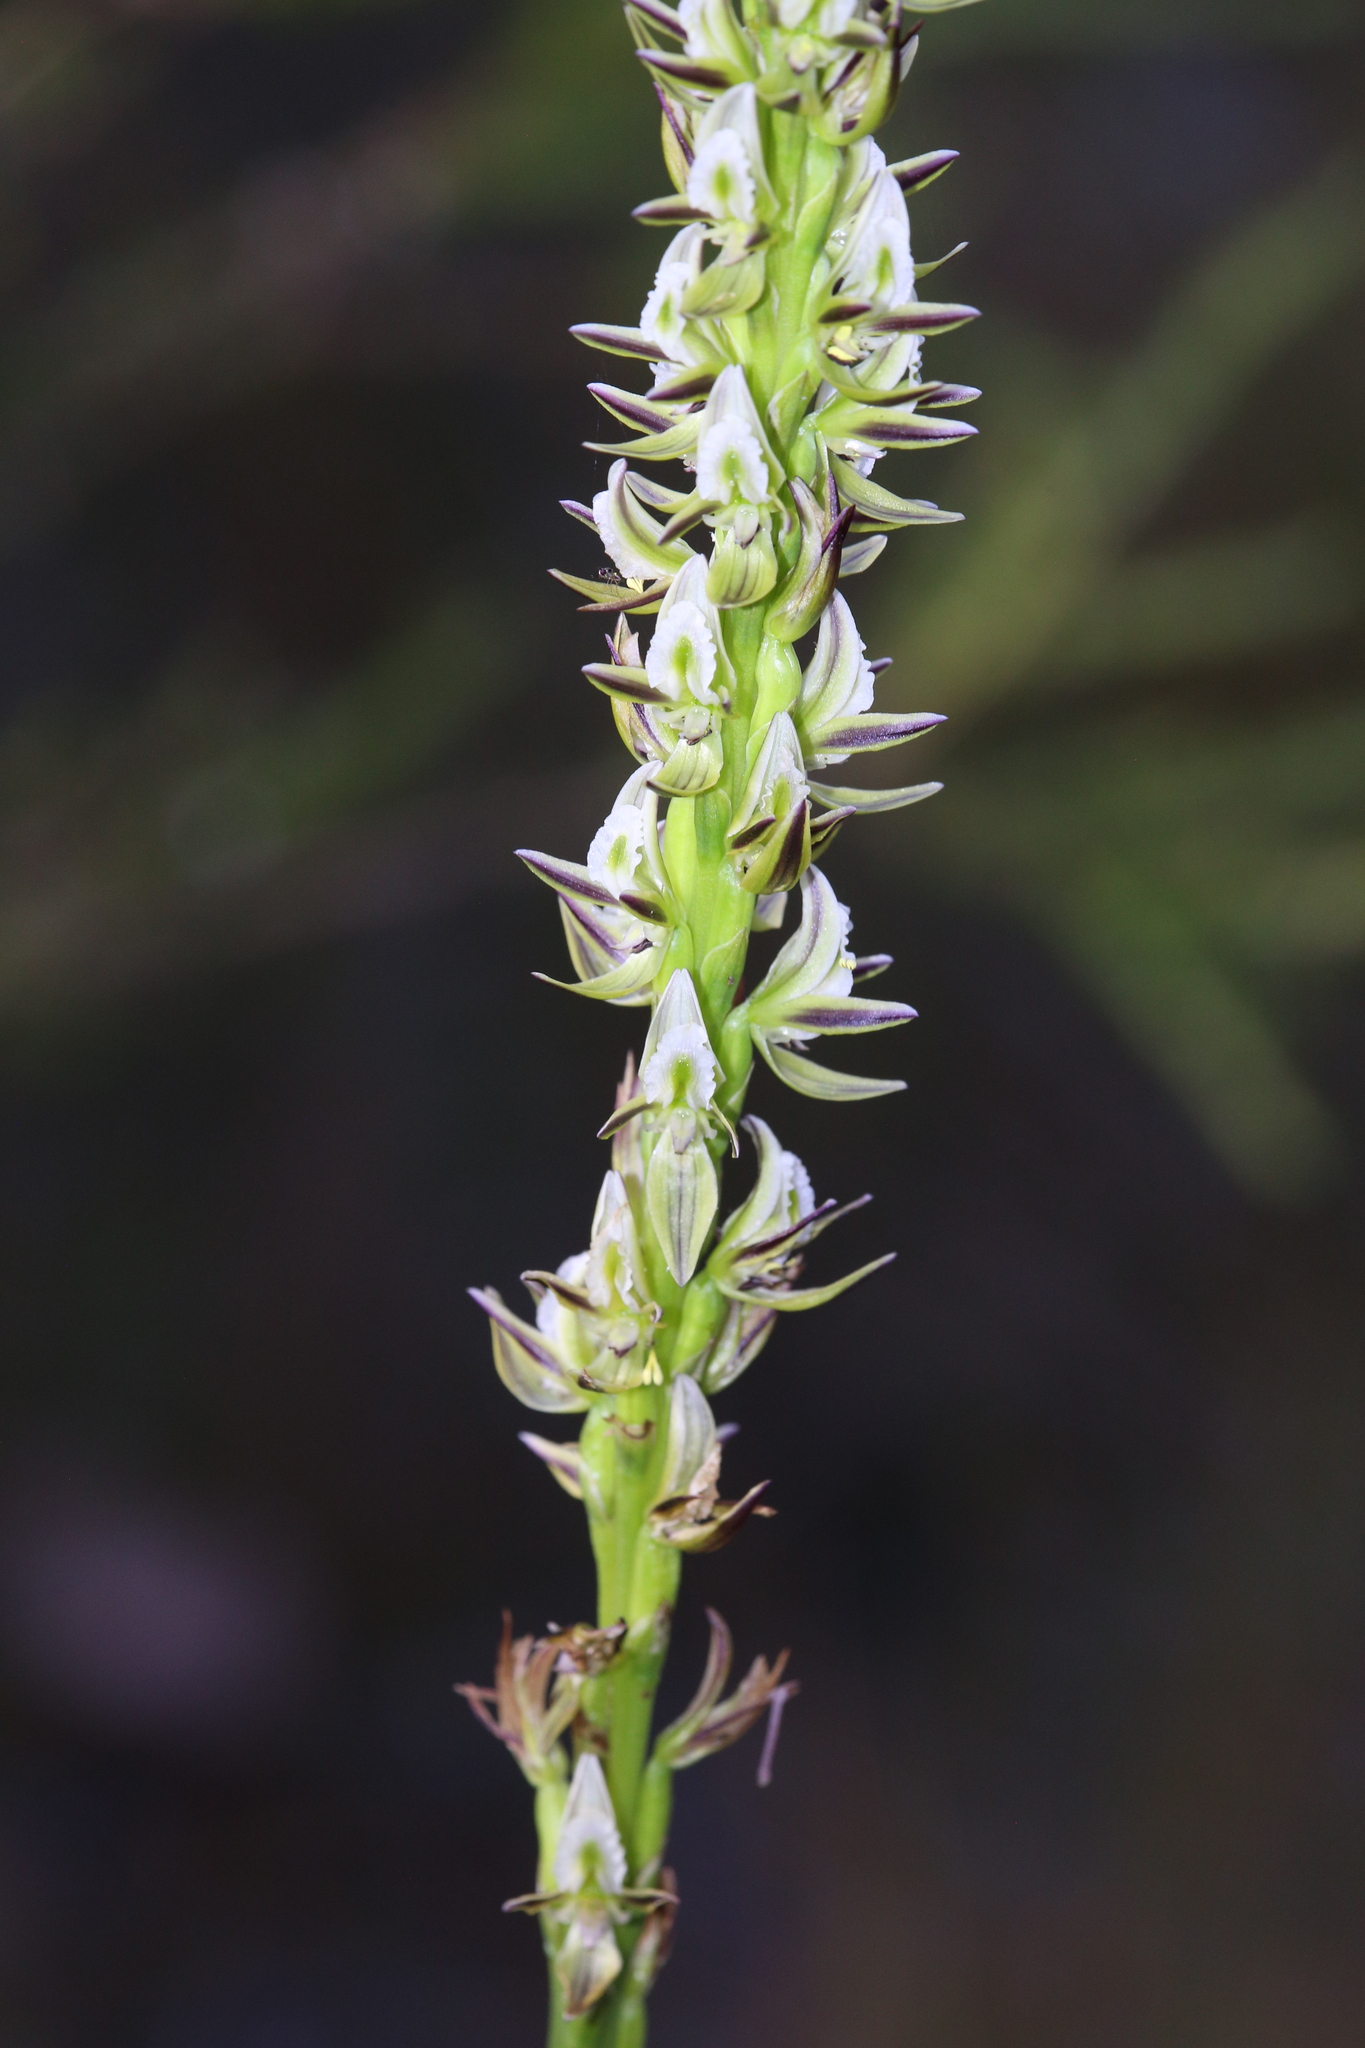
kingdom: Plantae
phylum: Tracheophyta
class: Liliopsida
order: Asparagales
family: Orchidaceae
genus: Prasophyllum
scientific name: Prasophyllum brownii
